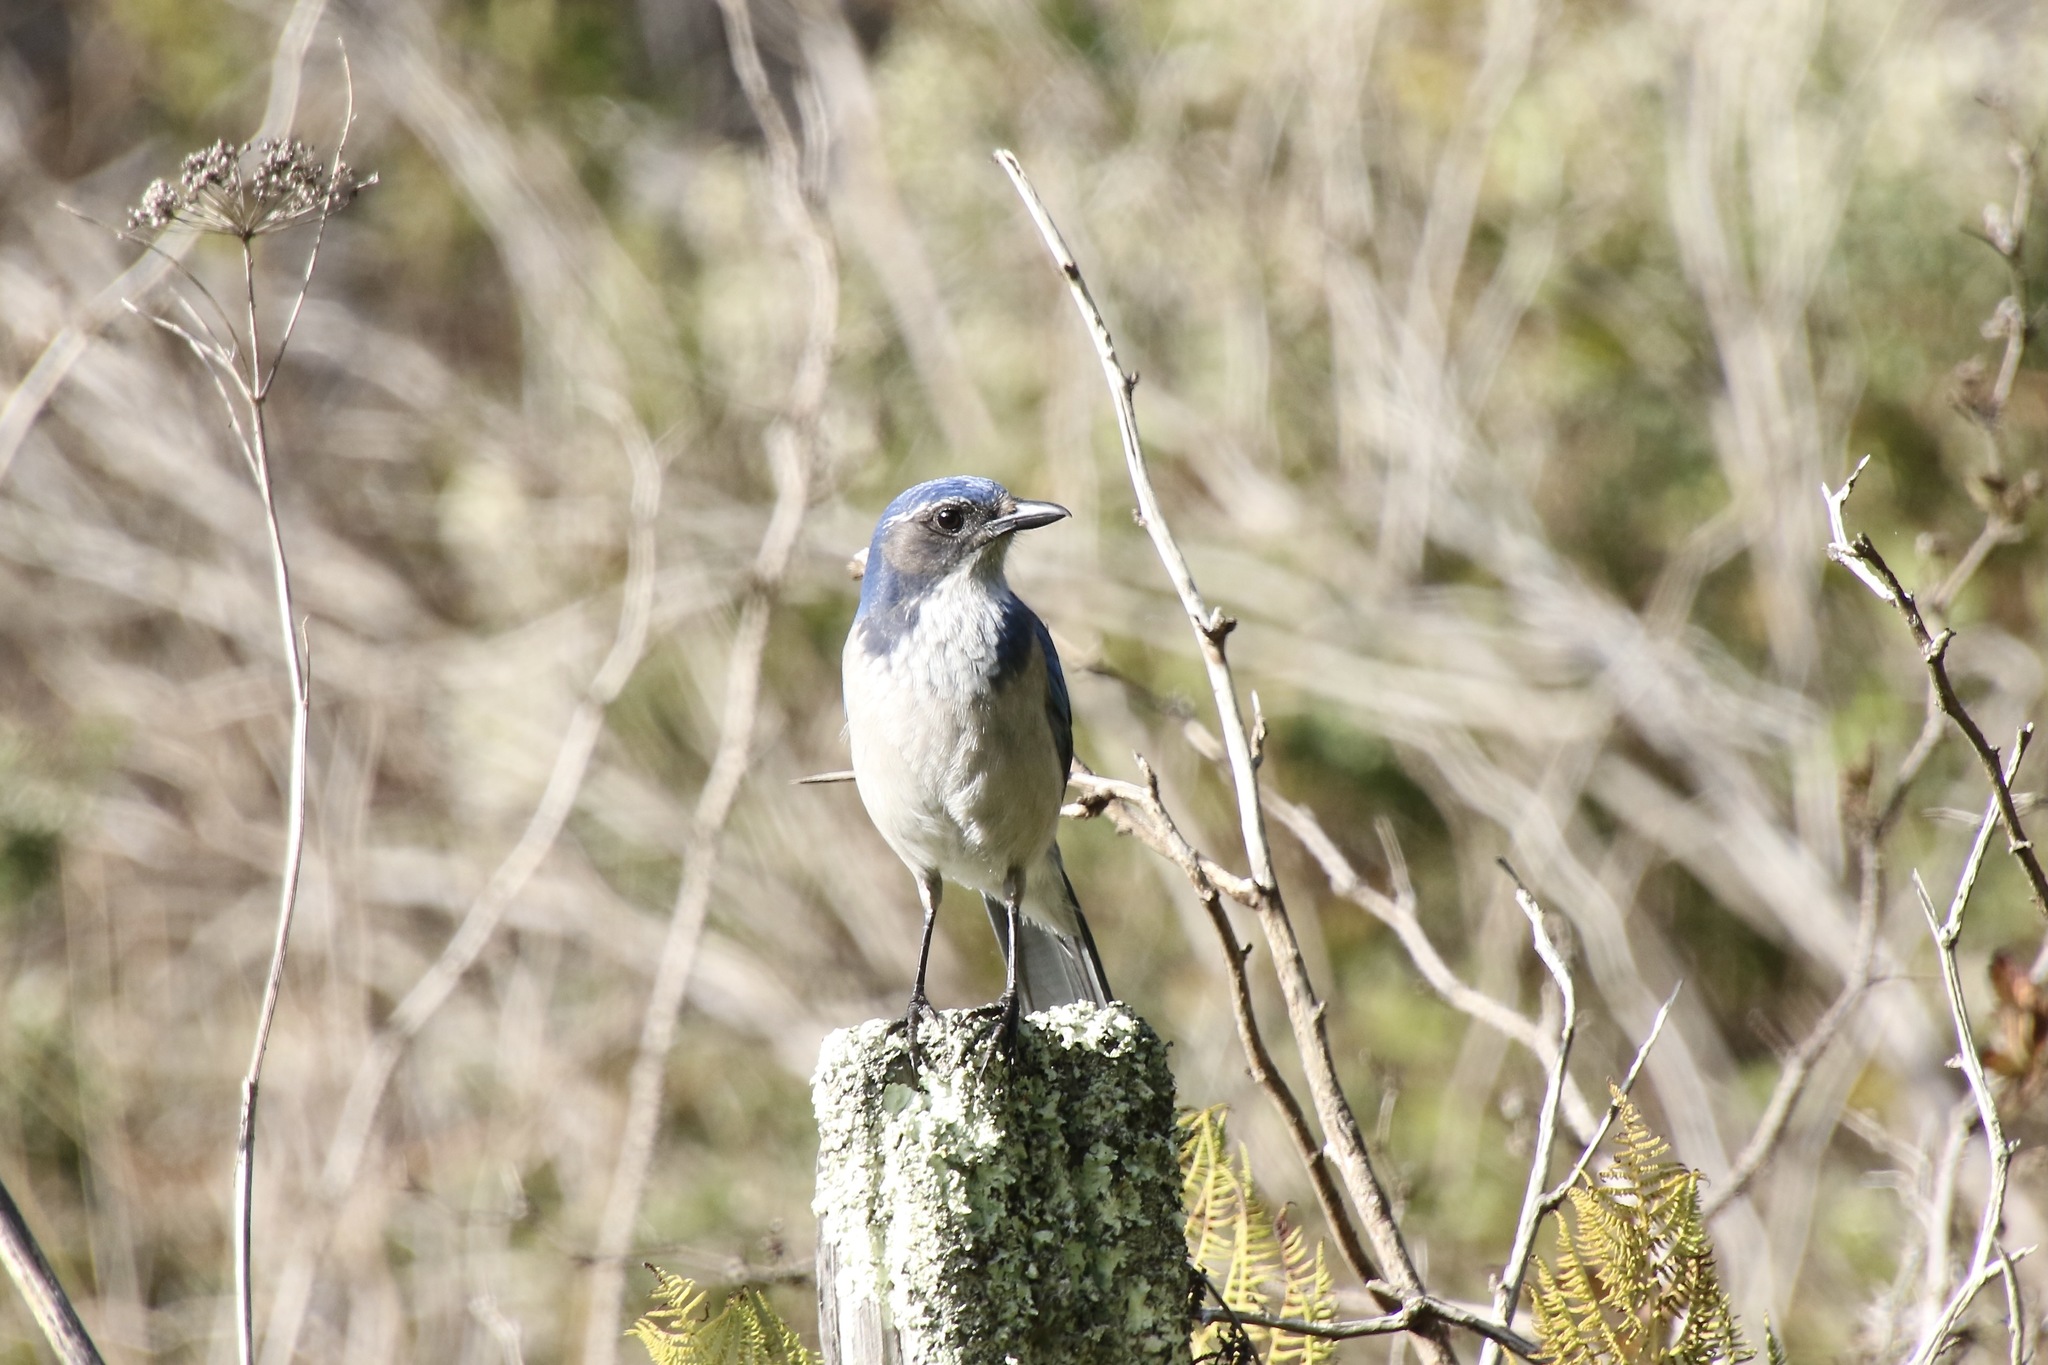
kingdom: Animalia
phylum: Chordata
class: Aves
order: Passeriformes
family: Corvidae
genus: Aphelocoma
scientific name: Aphelocoma californica
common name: California scrub-jay
